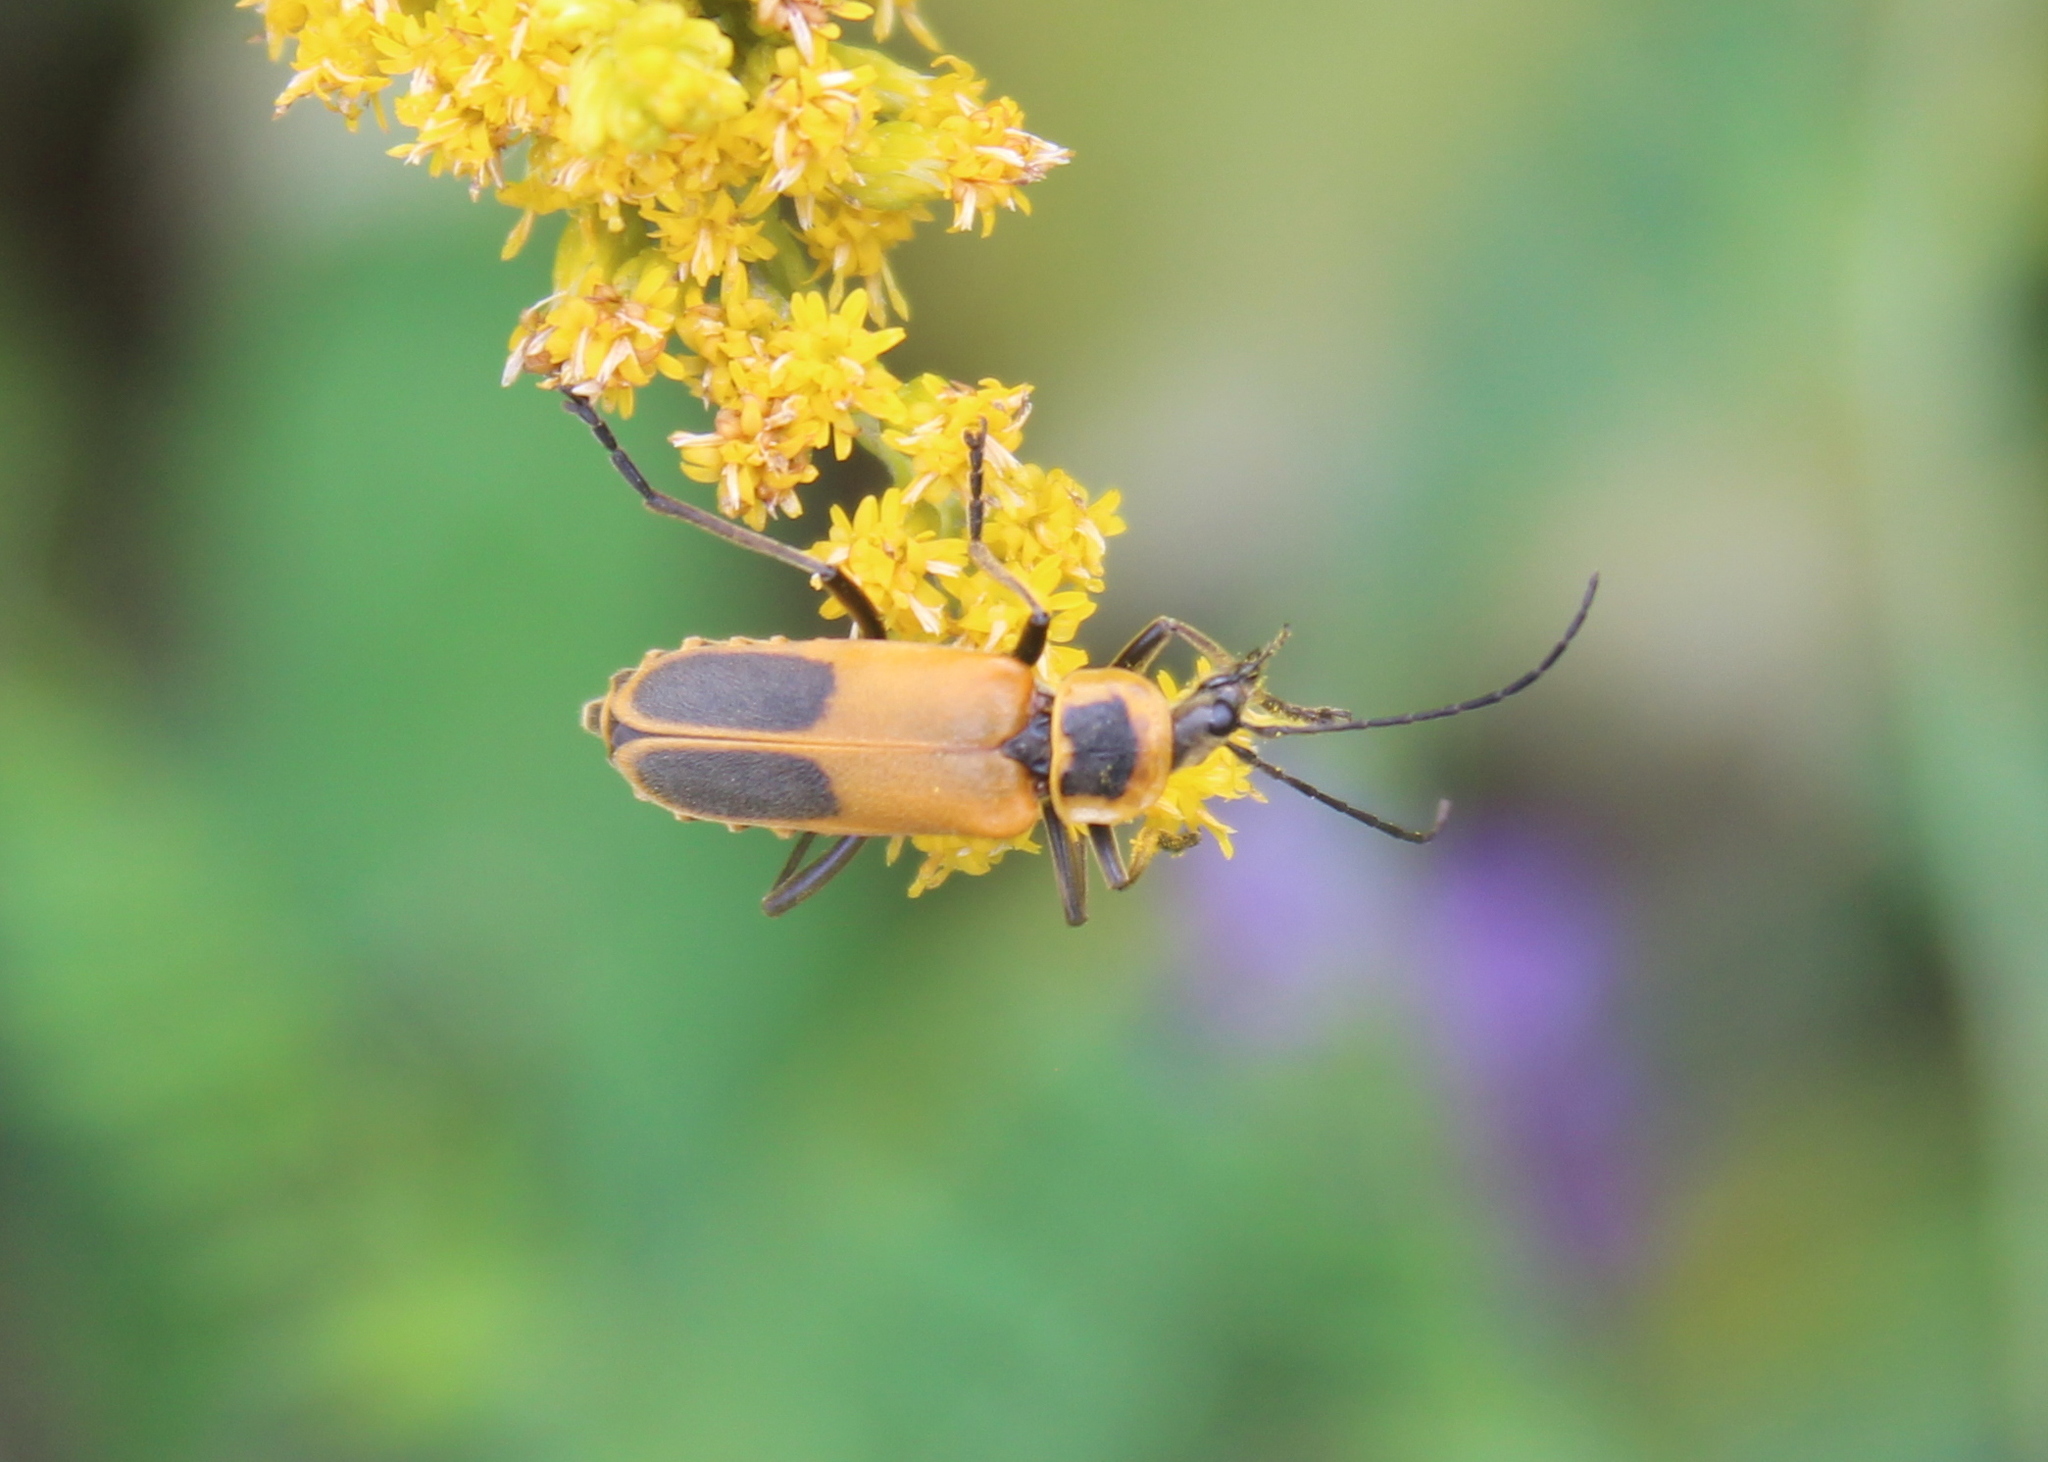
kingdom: Animalia
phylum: Arthropoda
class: Insecta
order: Coleoptera
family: Cantharidae
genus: Chauliognathus
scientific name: Chauliognathus pensylvanicus
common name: Goldenrod soldier beetle
